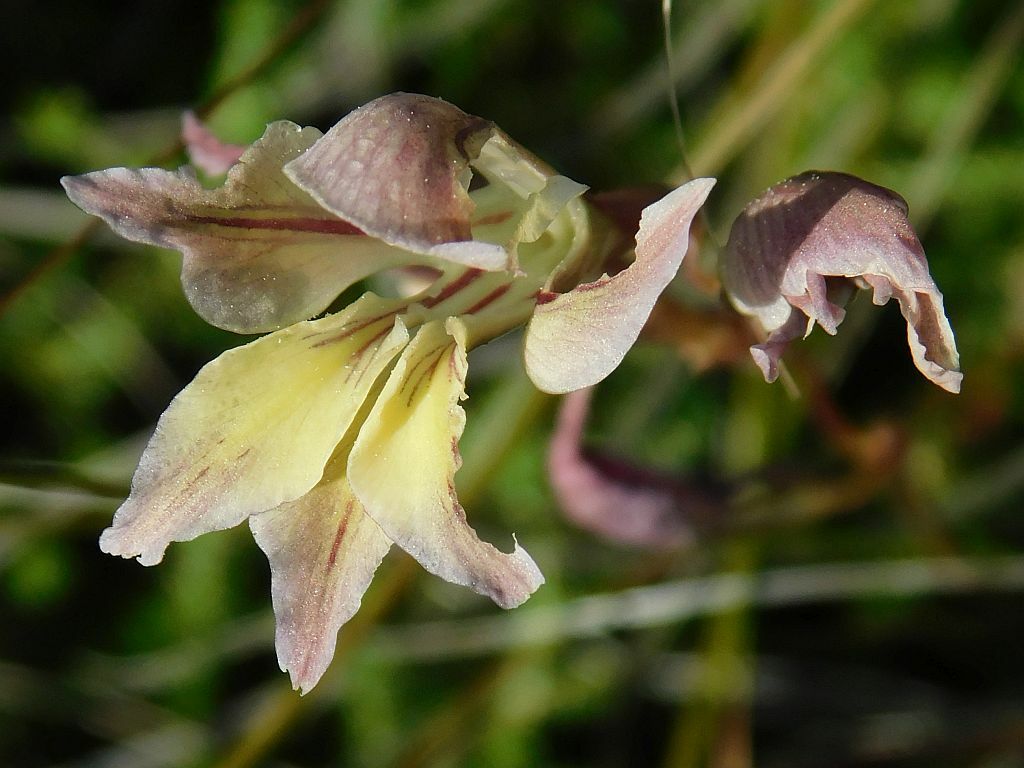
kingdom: Plantae
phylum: Tracheophyta
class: Liliopsida
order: Asparagales
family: Iridaceae
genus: Gladiolus
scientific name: Gladiolus permeabilis
